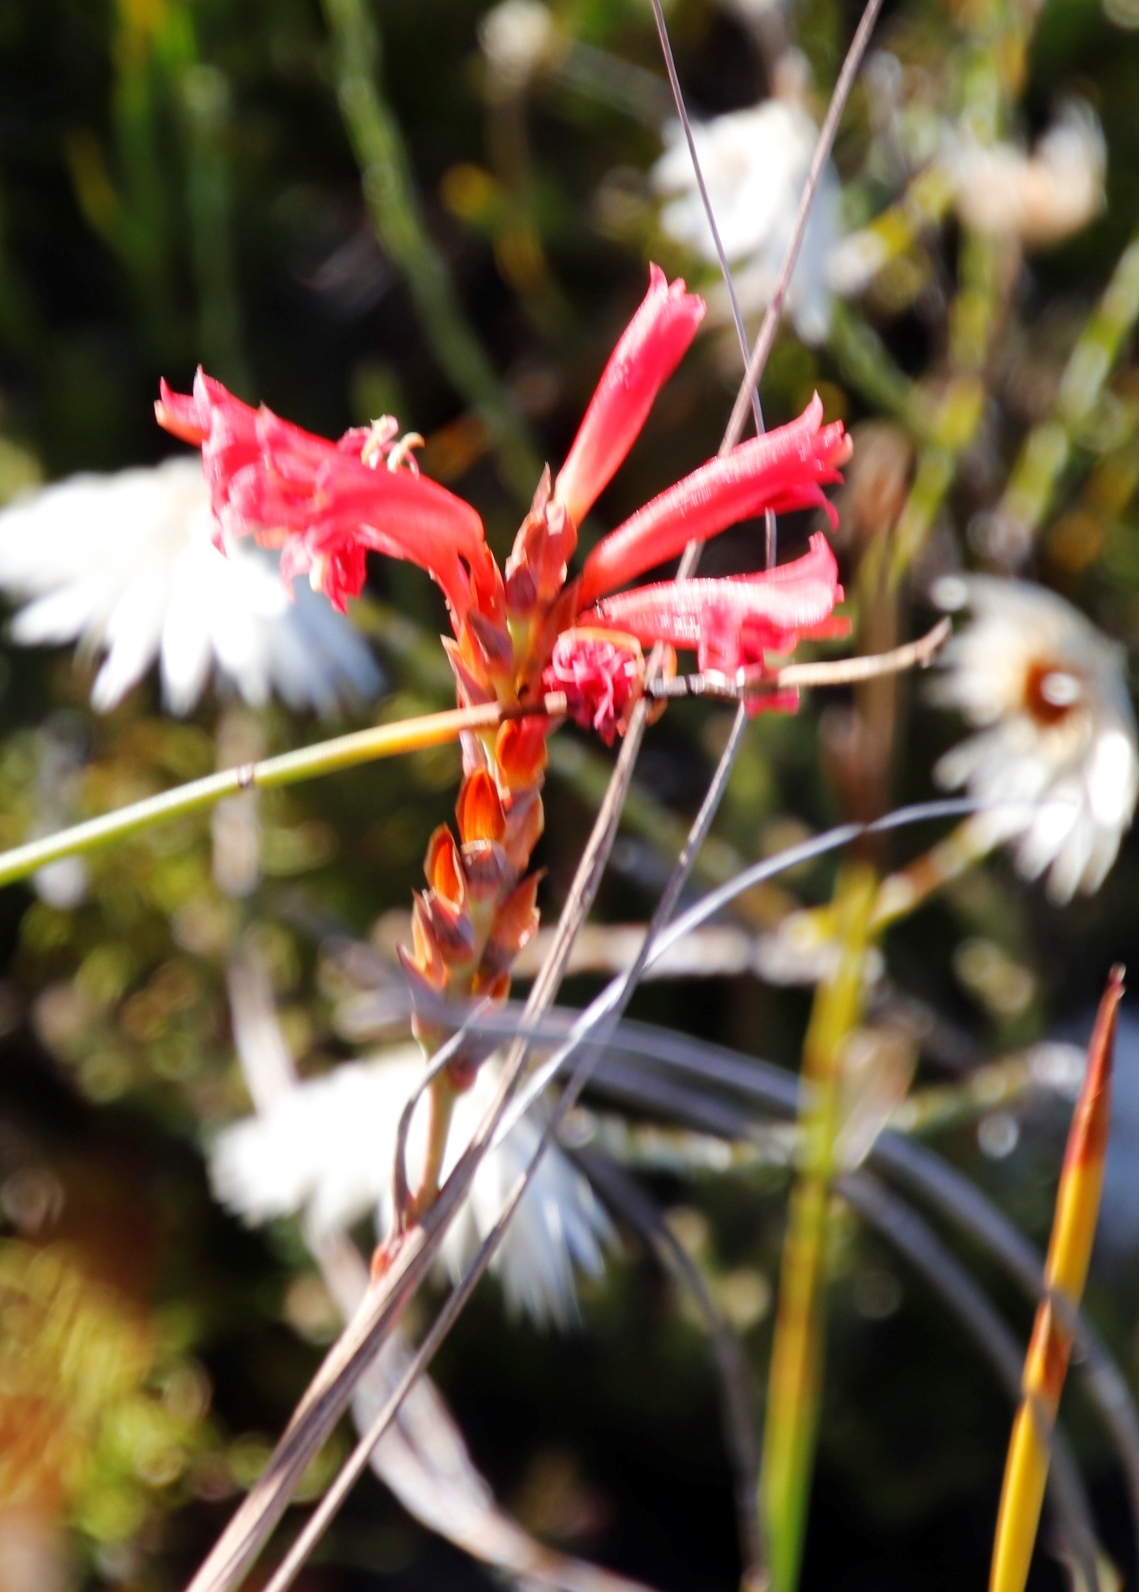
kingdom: Plantae
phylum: Tracheophyta
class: Liliopsida
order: Asparagales
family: Iridaceae
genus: Tritoniopsis
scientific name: Tritoniopsis triticea
